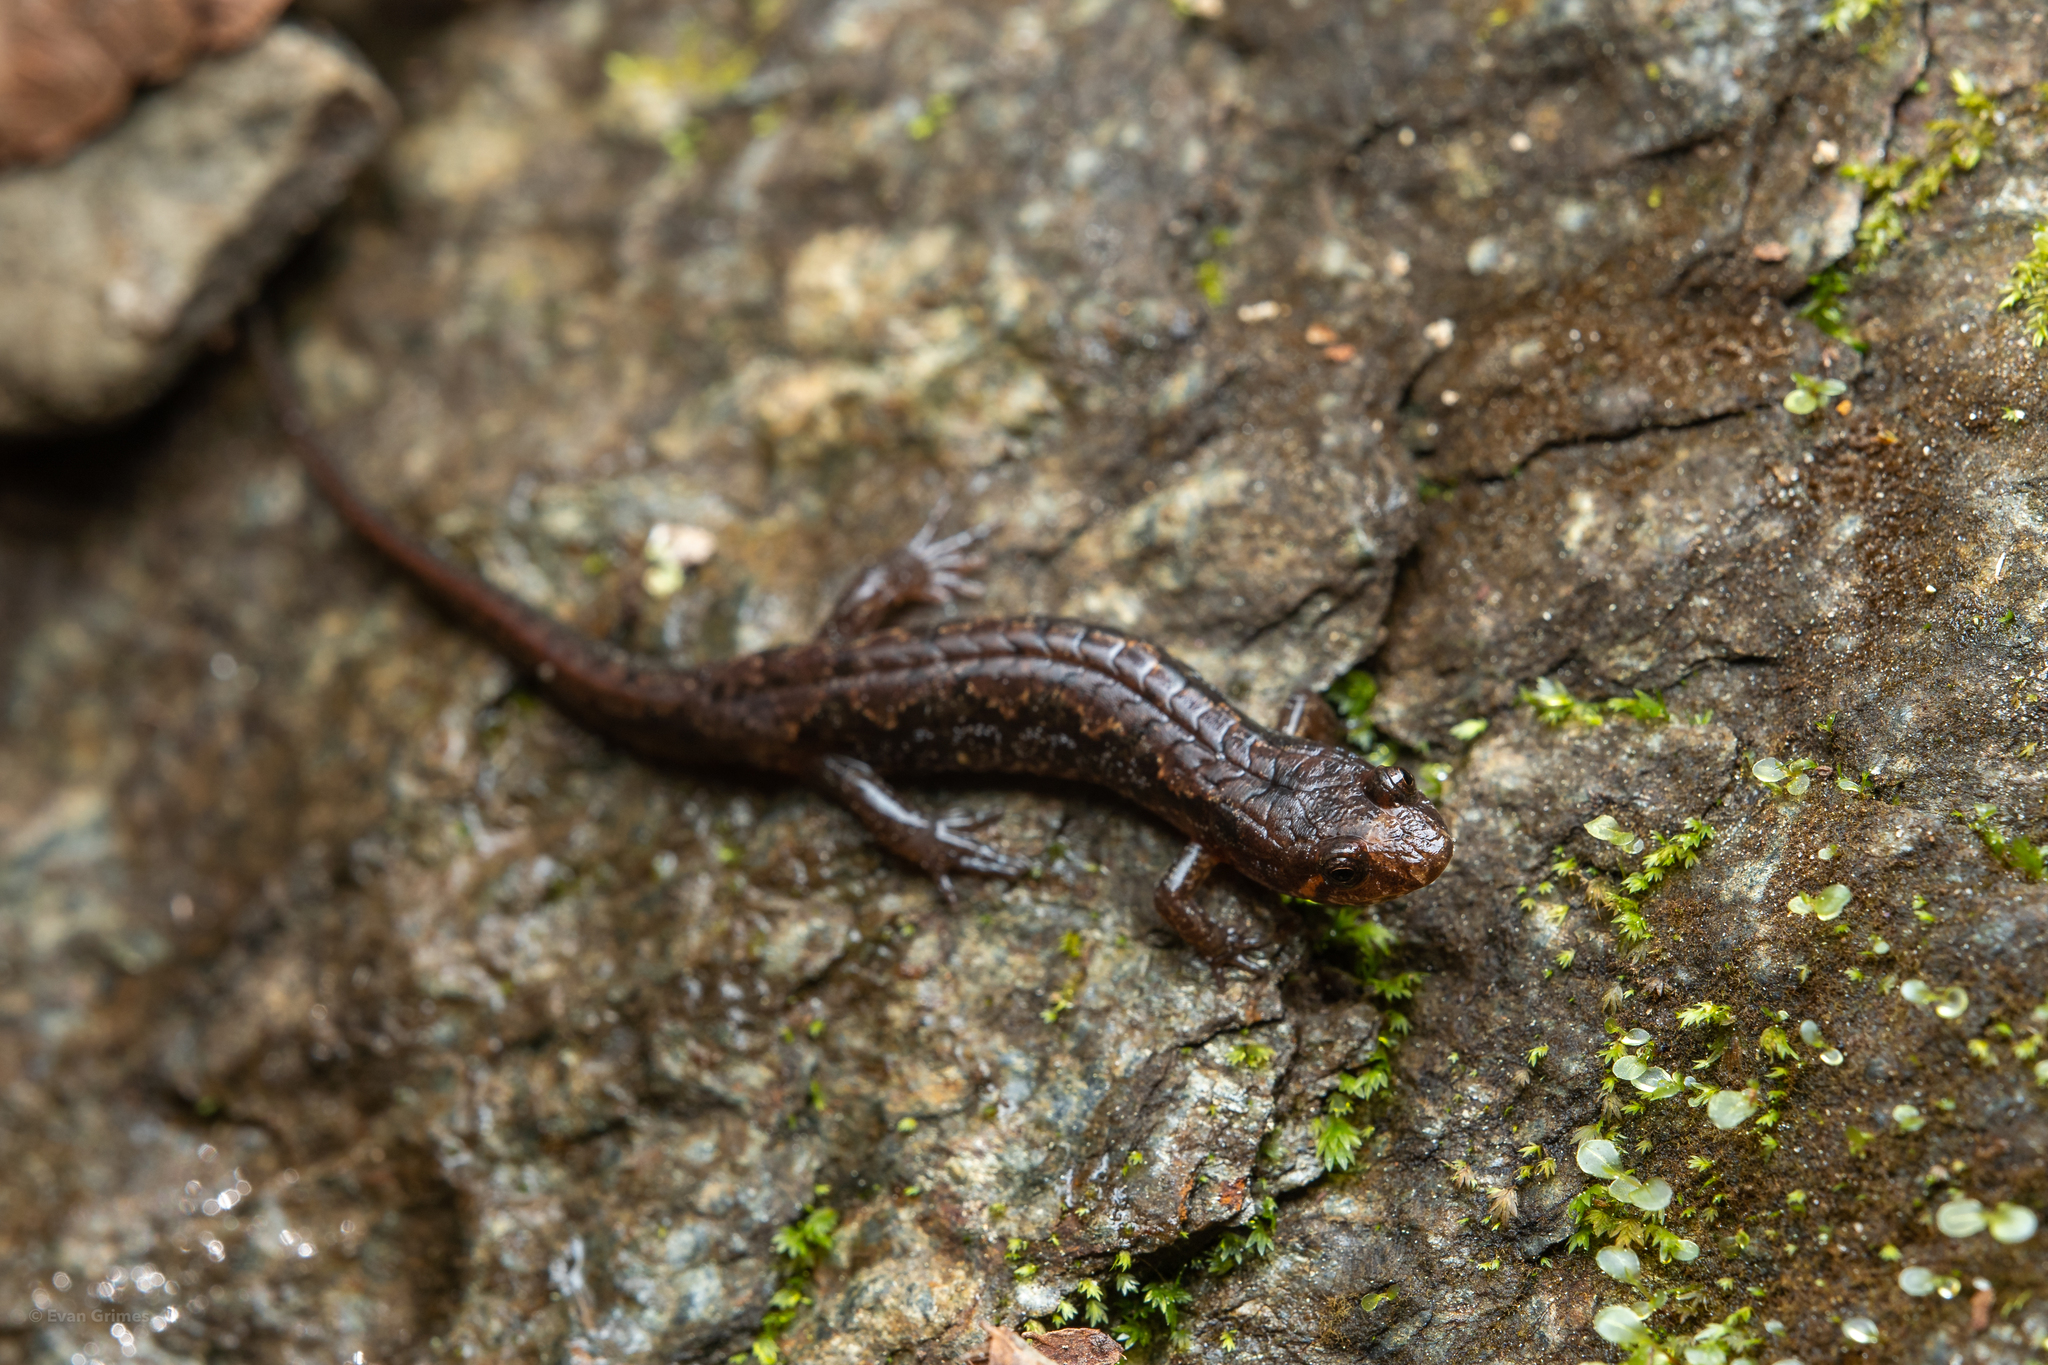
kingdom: Animalia
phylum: Chordata
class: Amphibia
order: Caudata
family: Plethodontidae
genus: Desmognathus
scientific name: Desmognathus ocoee
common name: Ocoee salamander
